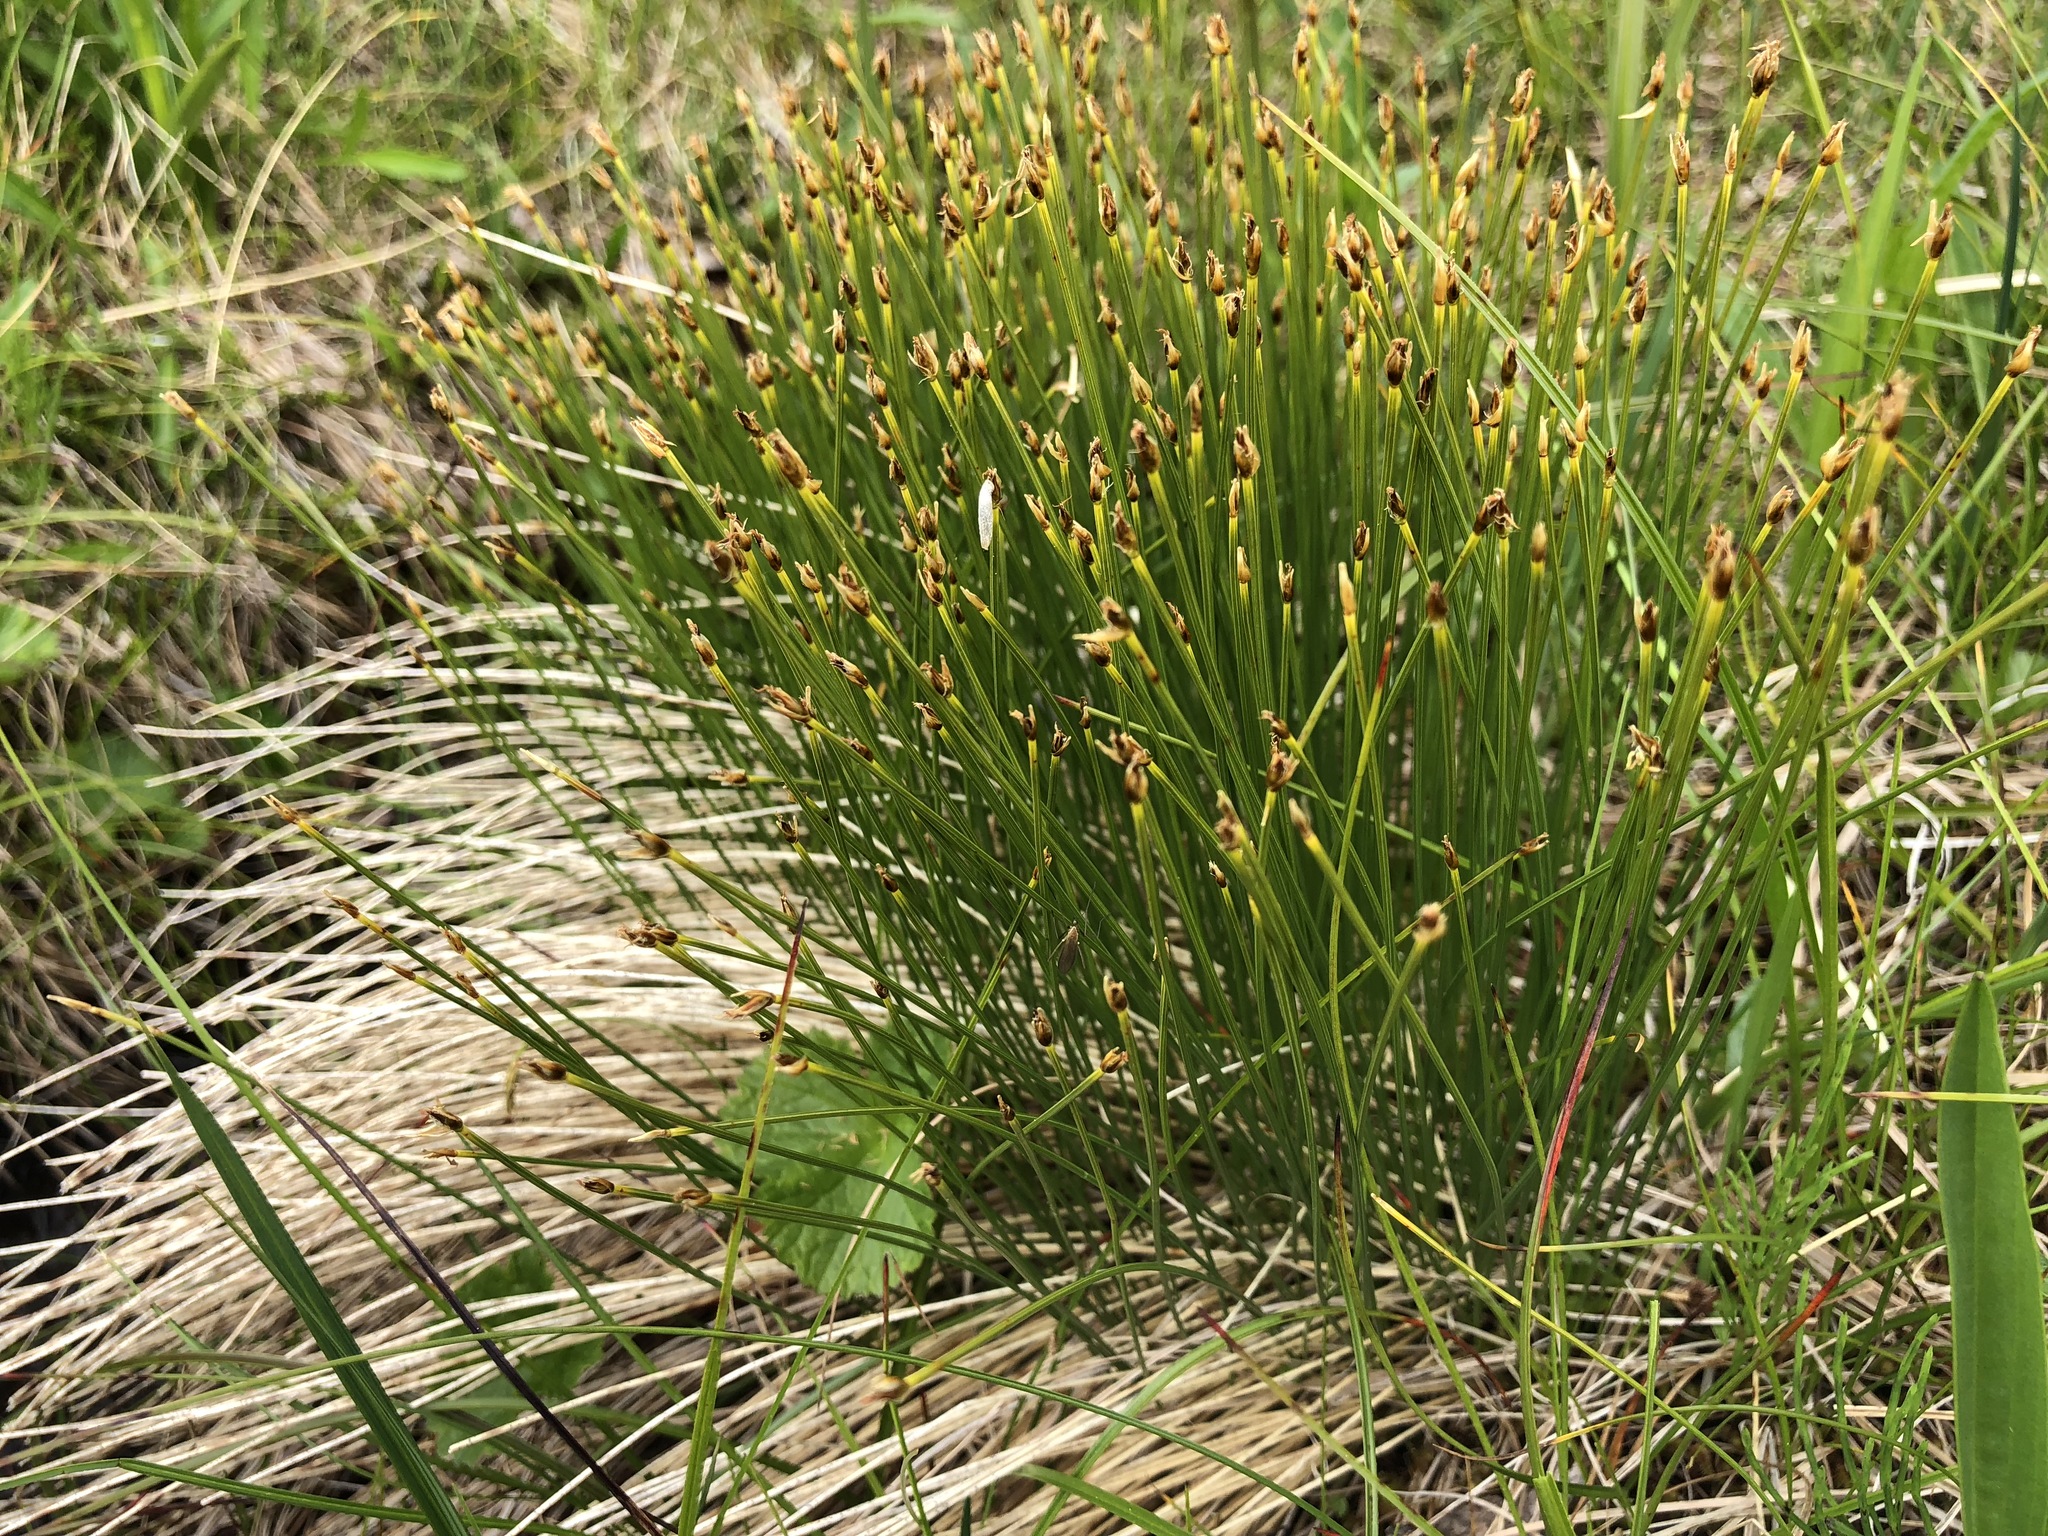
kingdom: Plantae
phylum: Tracheophyta
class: Liliopsida
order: Poales
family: Cyperaceae
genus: Trichophorum
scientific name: Trichophorum cespitosum
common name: Cespitose bulrush
